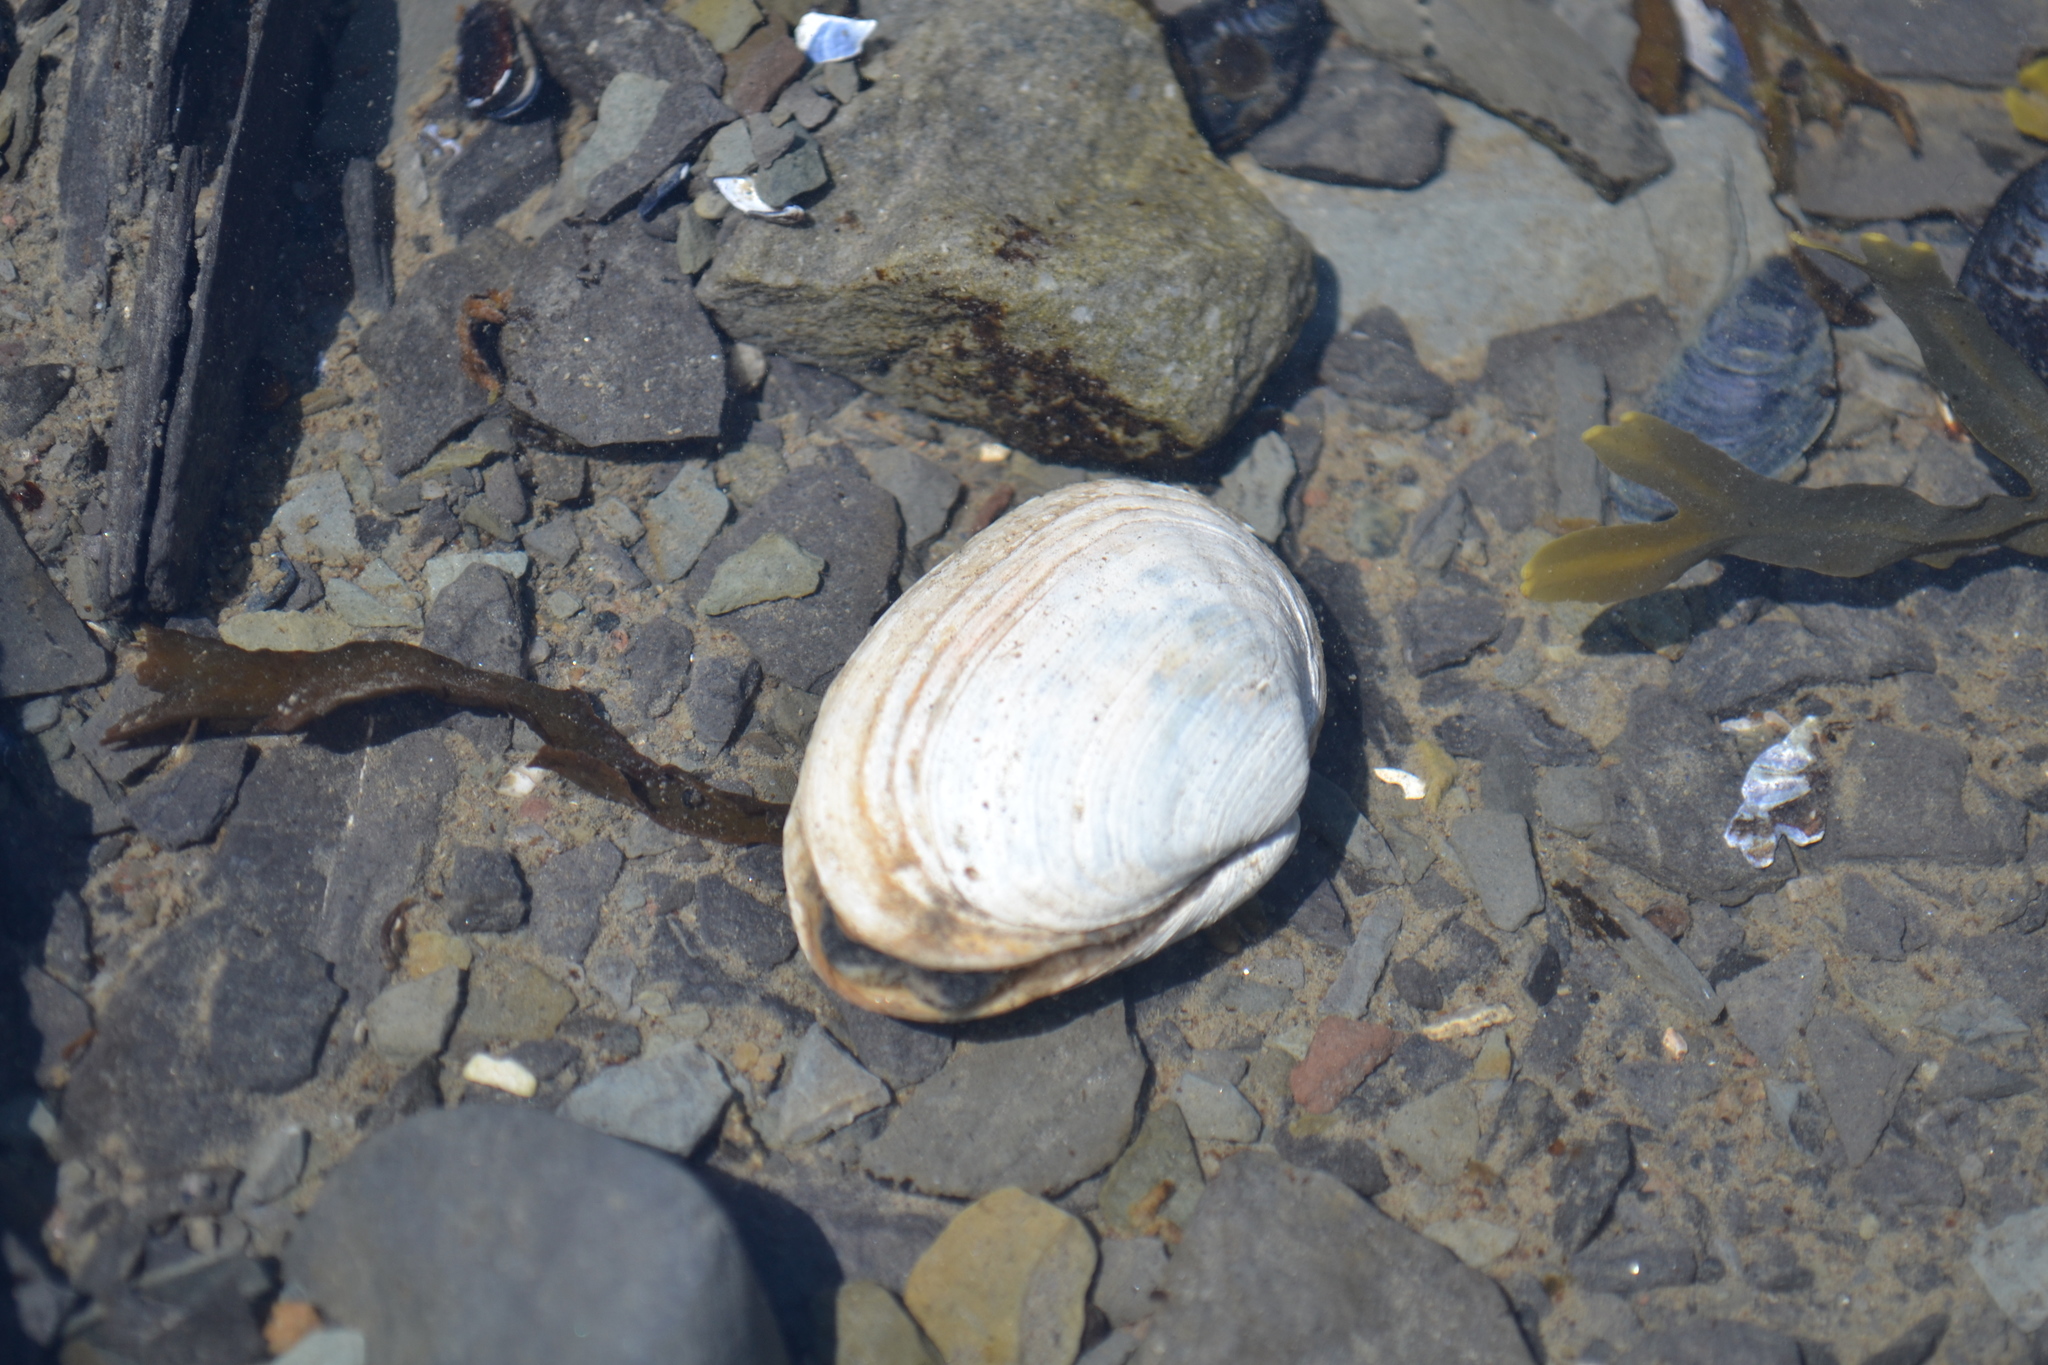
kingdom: Animalia
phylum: Mollusca
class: Bivalvia
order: Myida
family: Myidae
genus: Mya
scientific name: Mya arenaria
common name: Soft-shelled clam
